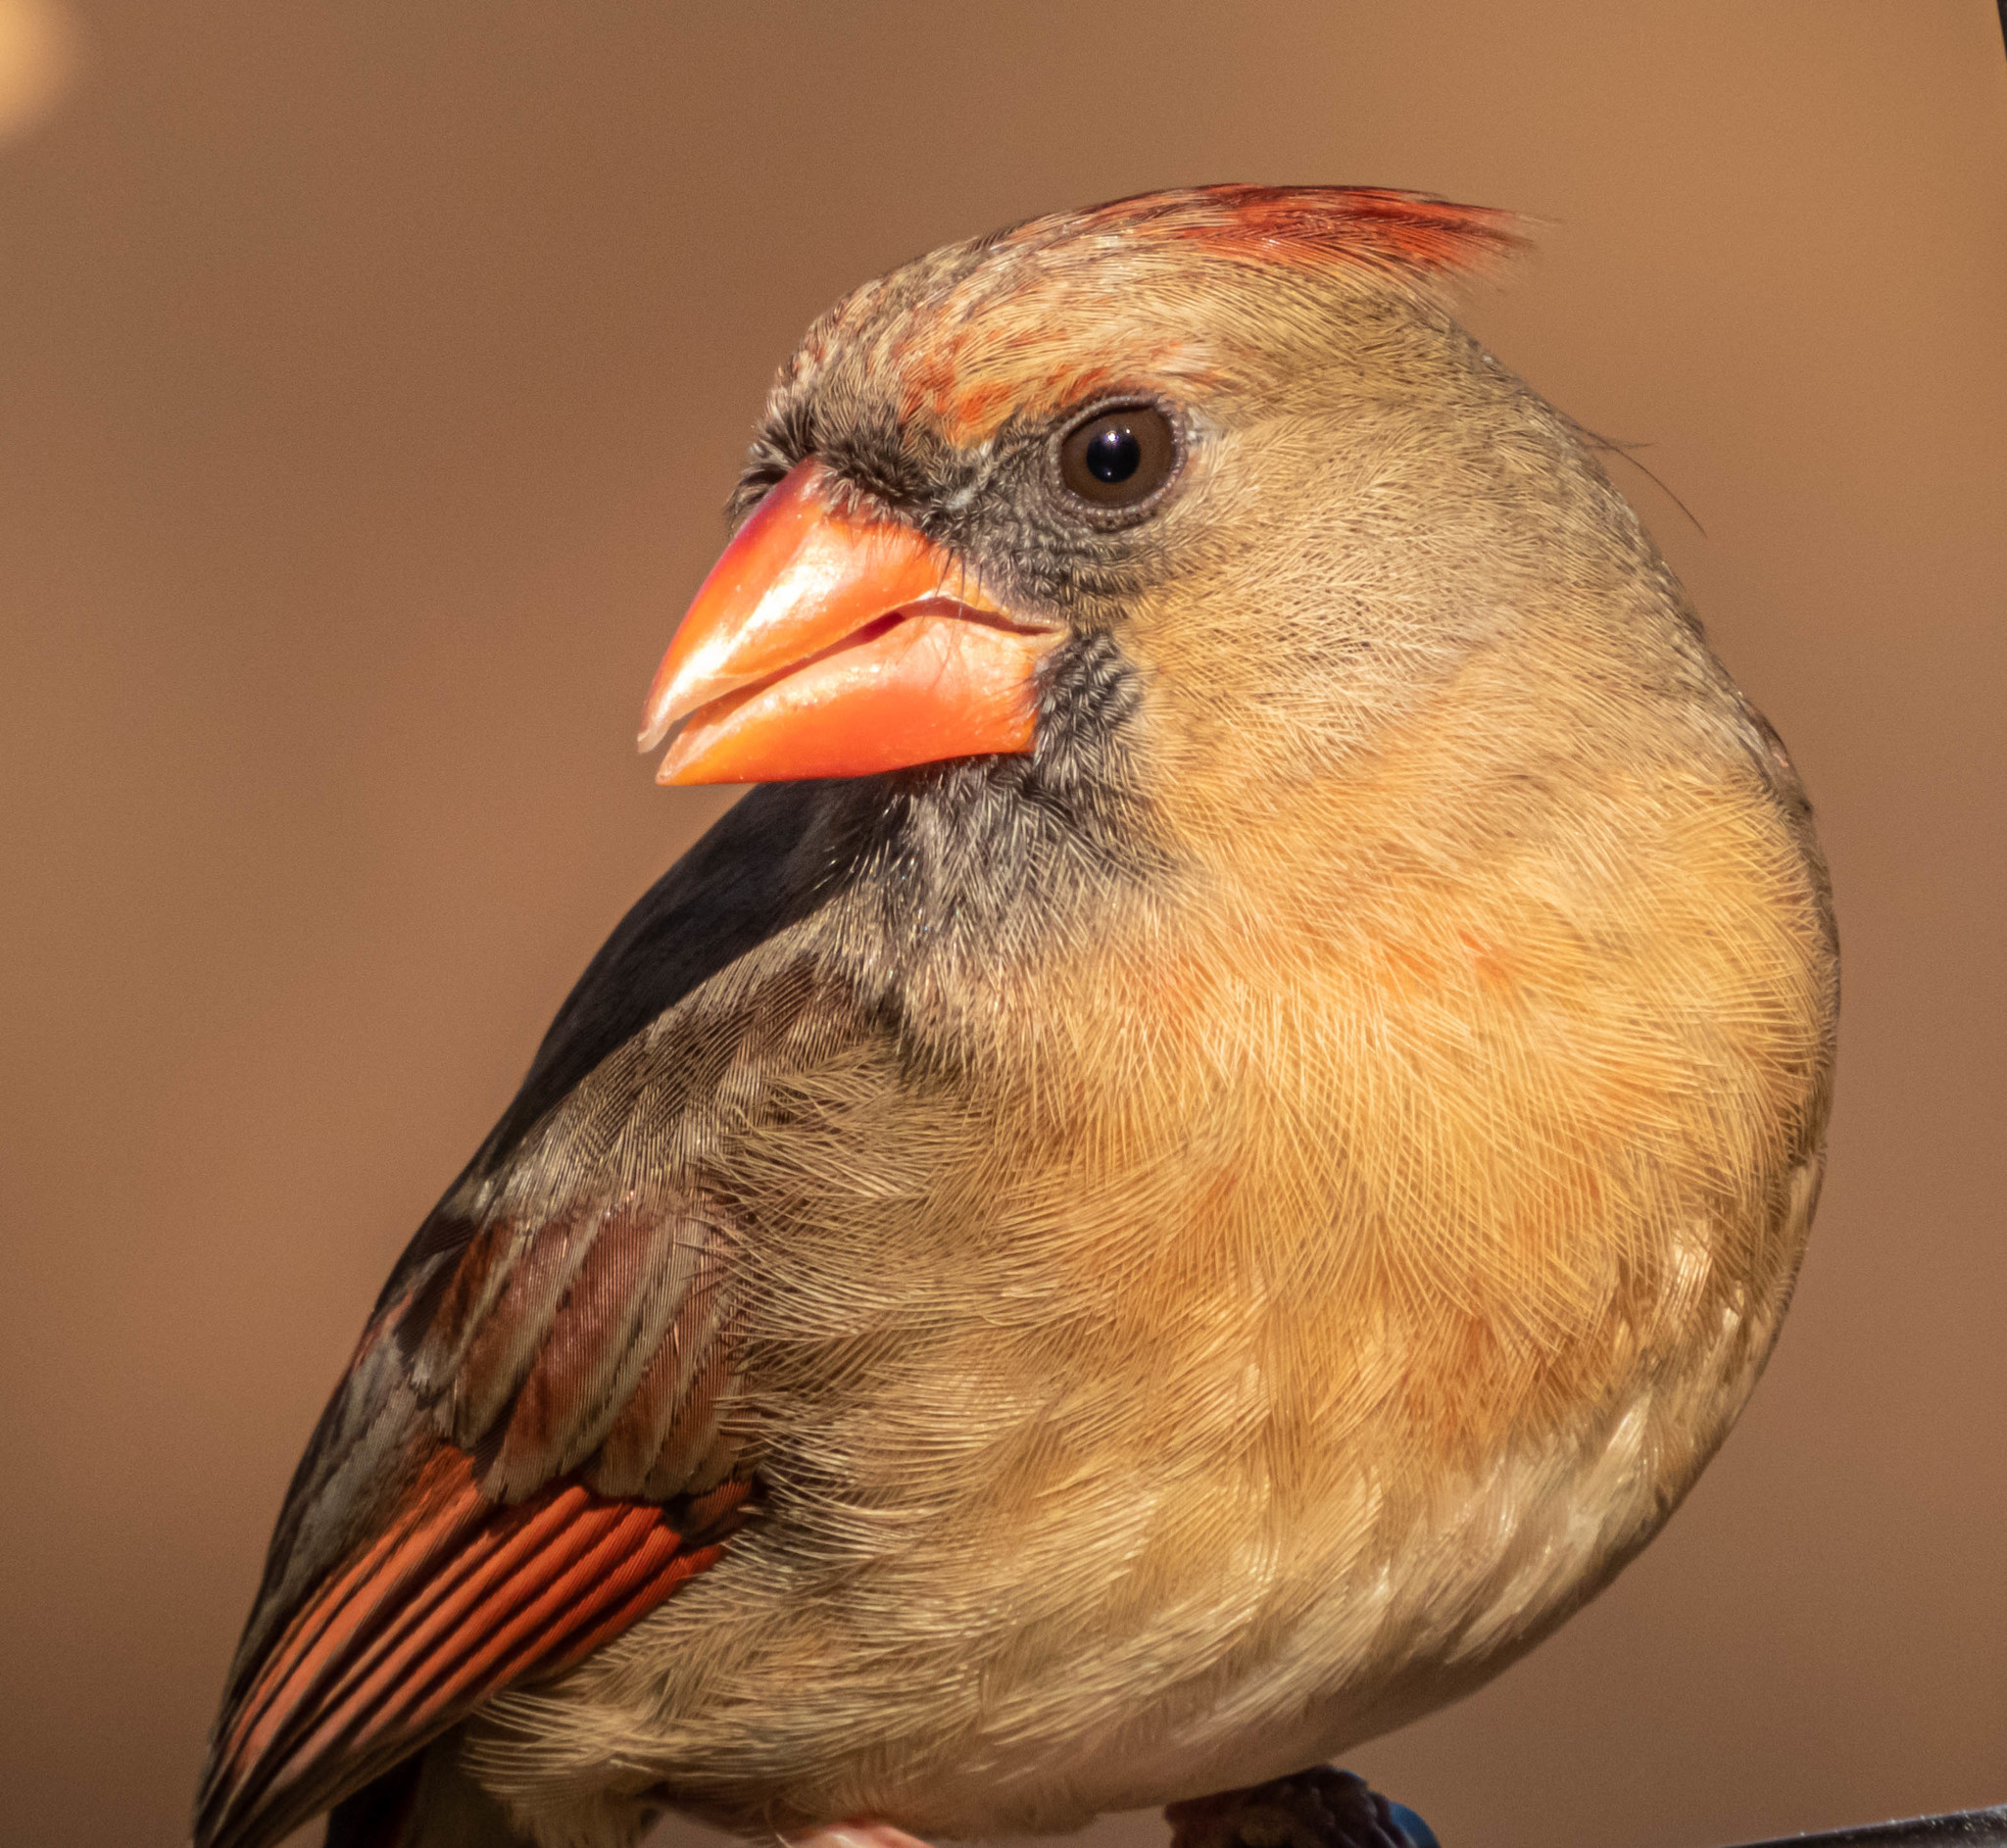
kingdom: Animalia
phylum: Chordata
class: Aves
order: Passeriformes
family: Cardinalidae
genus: Cardinalis
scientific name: Cardinalis cardinalis
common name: Northern cardinal
